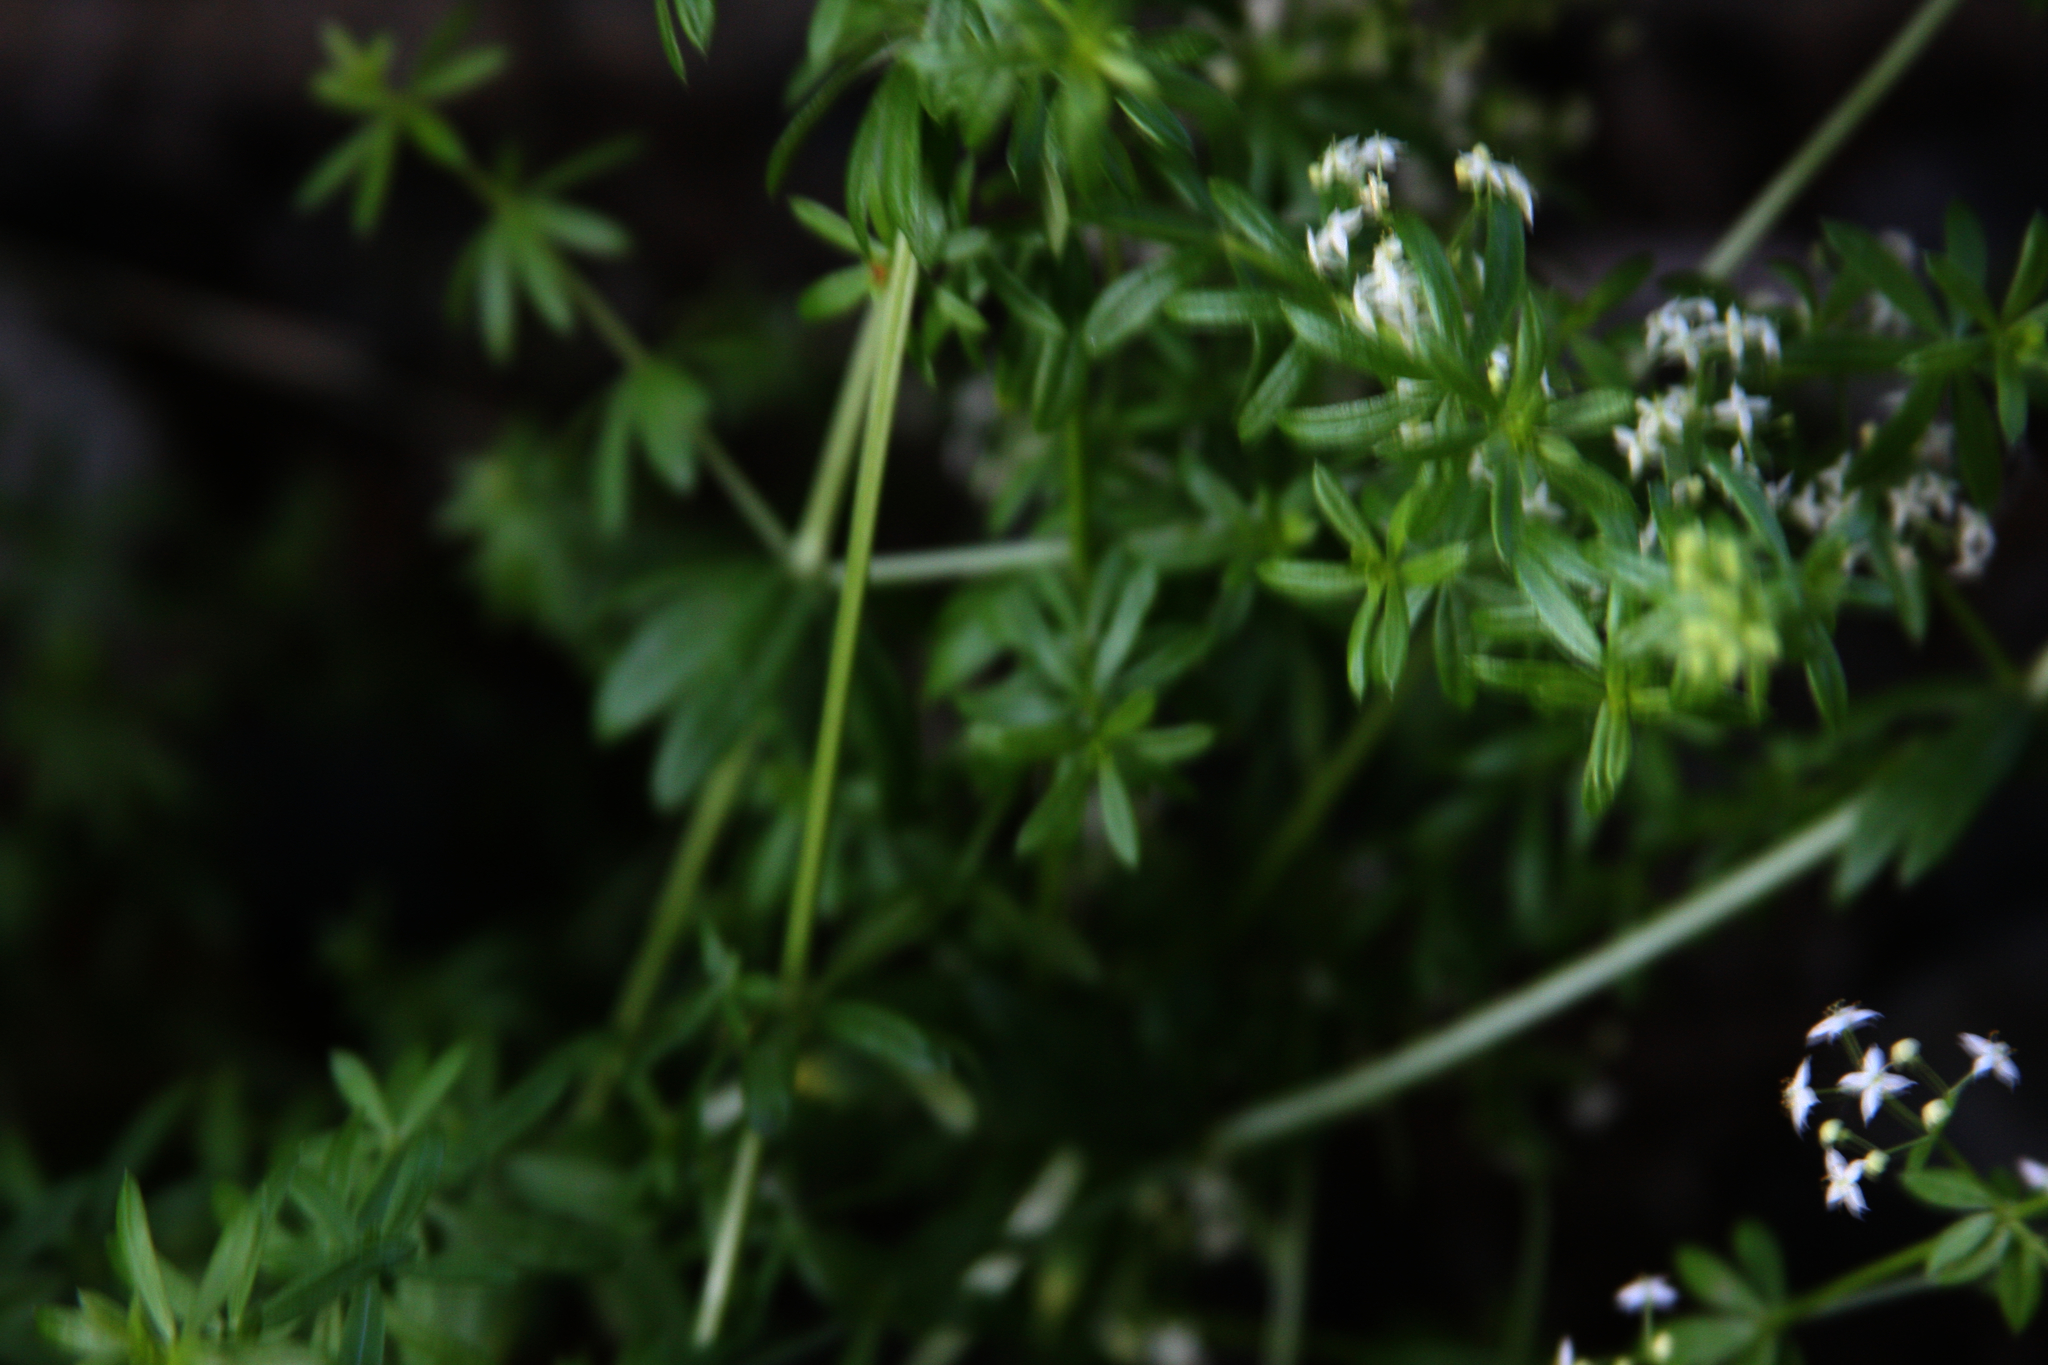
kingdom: Plantae
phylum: Tracheophyta
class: Magnoliopsida
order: Gentianales
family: Rubiaceae
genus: Galium
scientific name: Galium mollugo
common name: Hedge bedstraw
